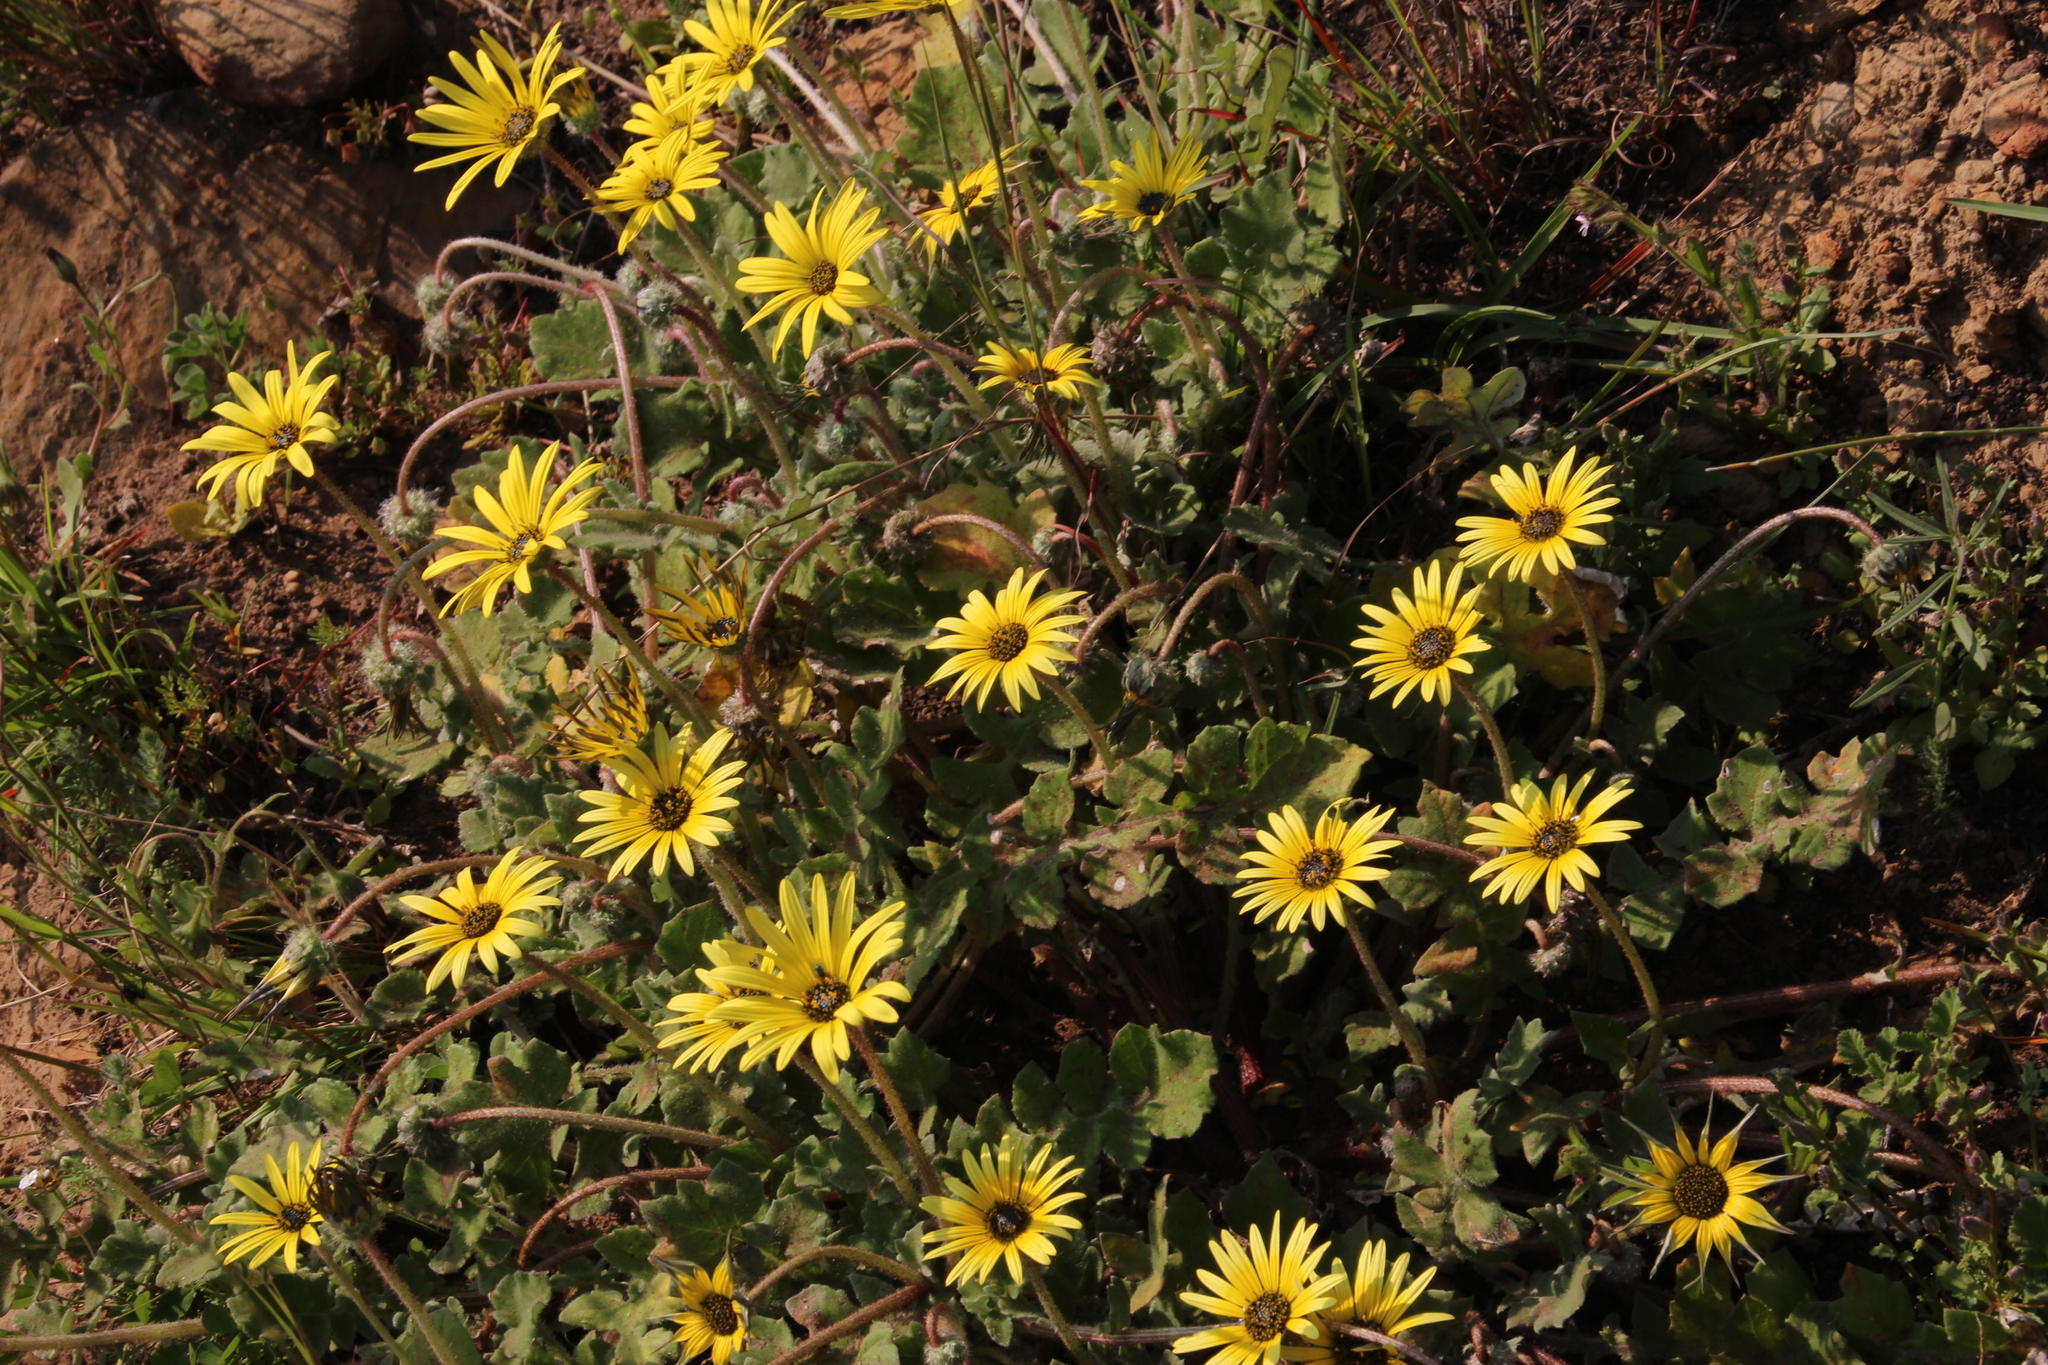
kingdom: Plantae
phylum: Tracheophyta
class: Magnoliopsida
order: Asterales
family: Asteraceae
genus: Arctotheca
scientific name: Arctotheca calendula
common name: Capeweed
